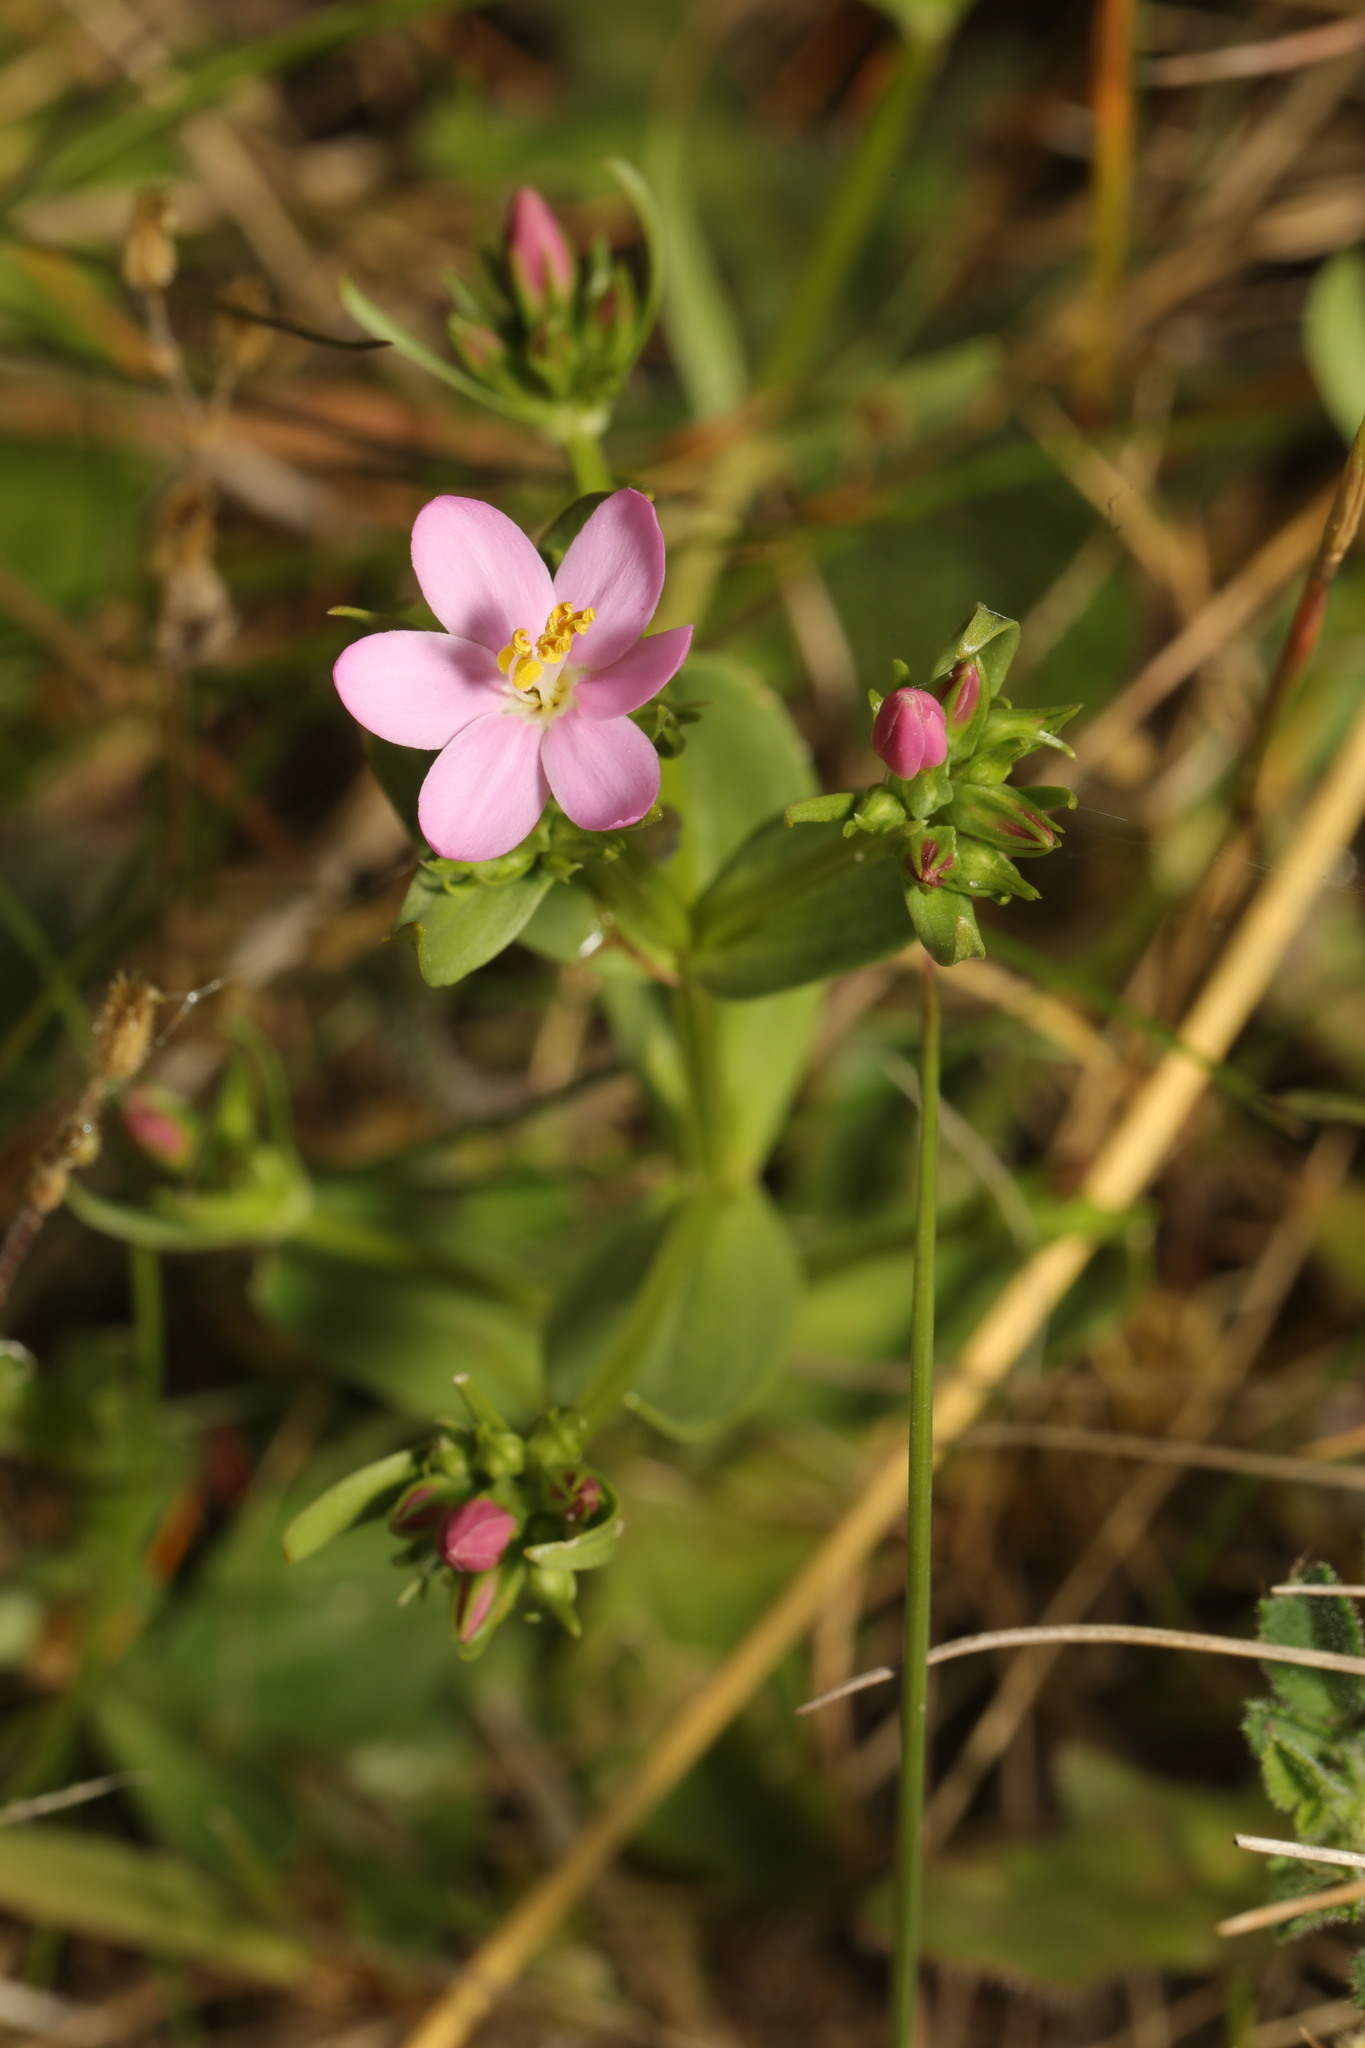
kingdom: Plantae
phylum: Tracheophyta
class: Magnoliopsida
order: Gentianales
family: Gentianaceae
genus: Centaurium
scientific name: Centaurium erythraea
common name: Common centaury
